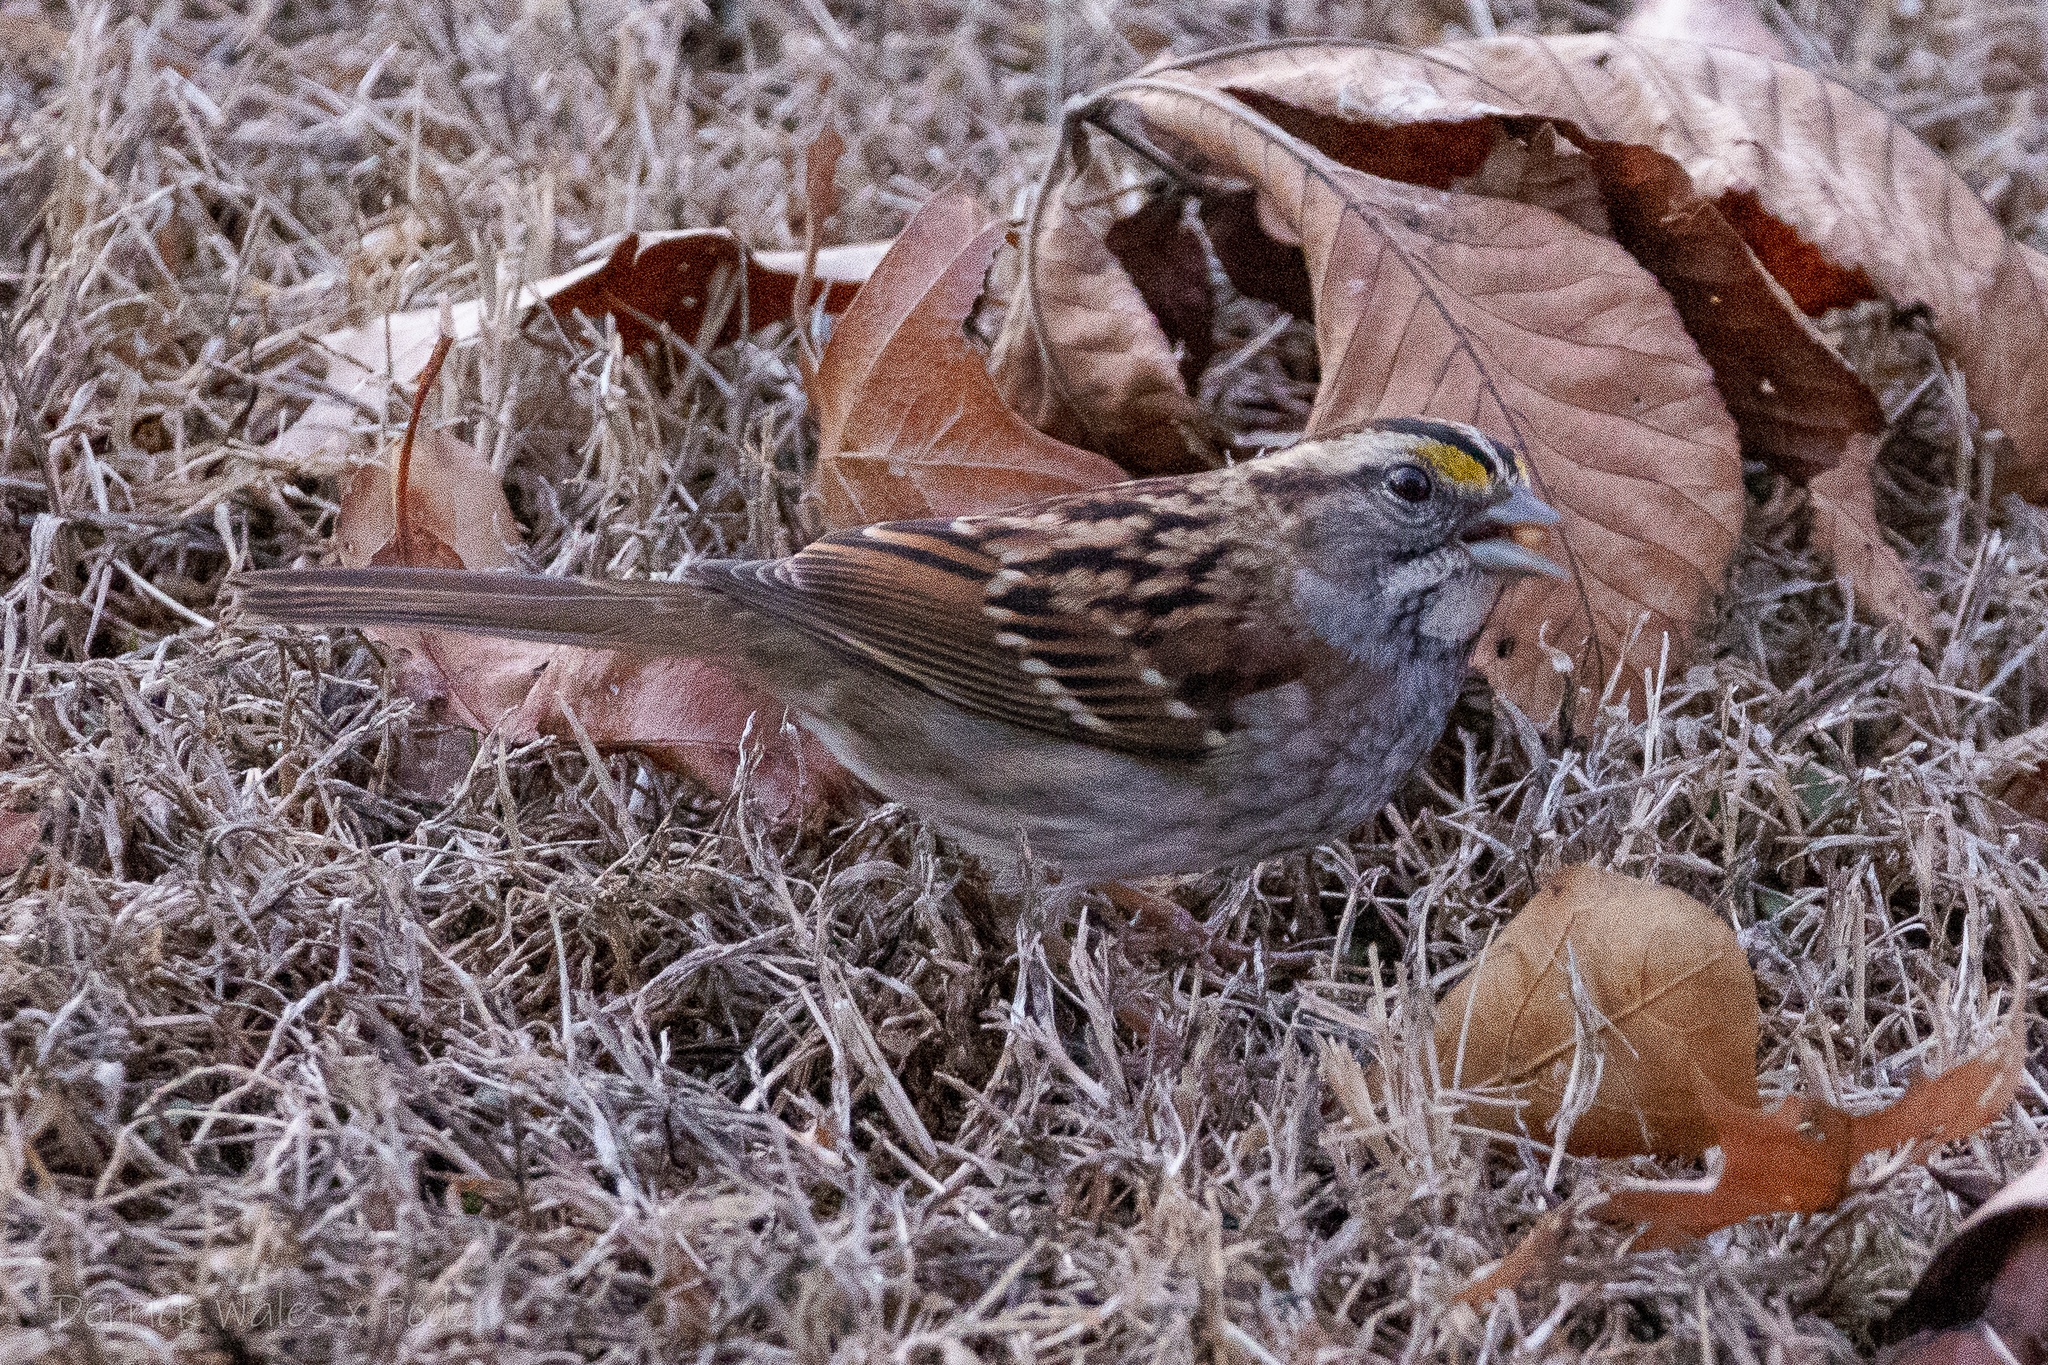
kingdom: Animalia
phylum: Chordata
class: Aves
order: Passeriformes
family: Passerellidae
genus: Zonotrichia
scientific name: Zonotrichia albicollis
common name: White-throated sparrow
